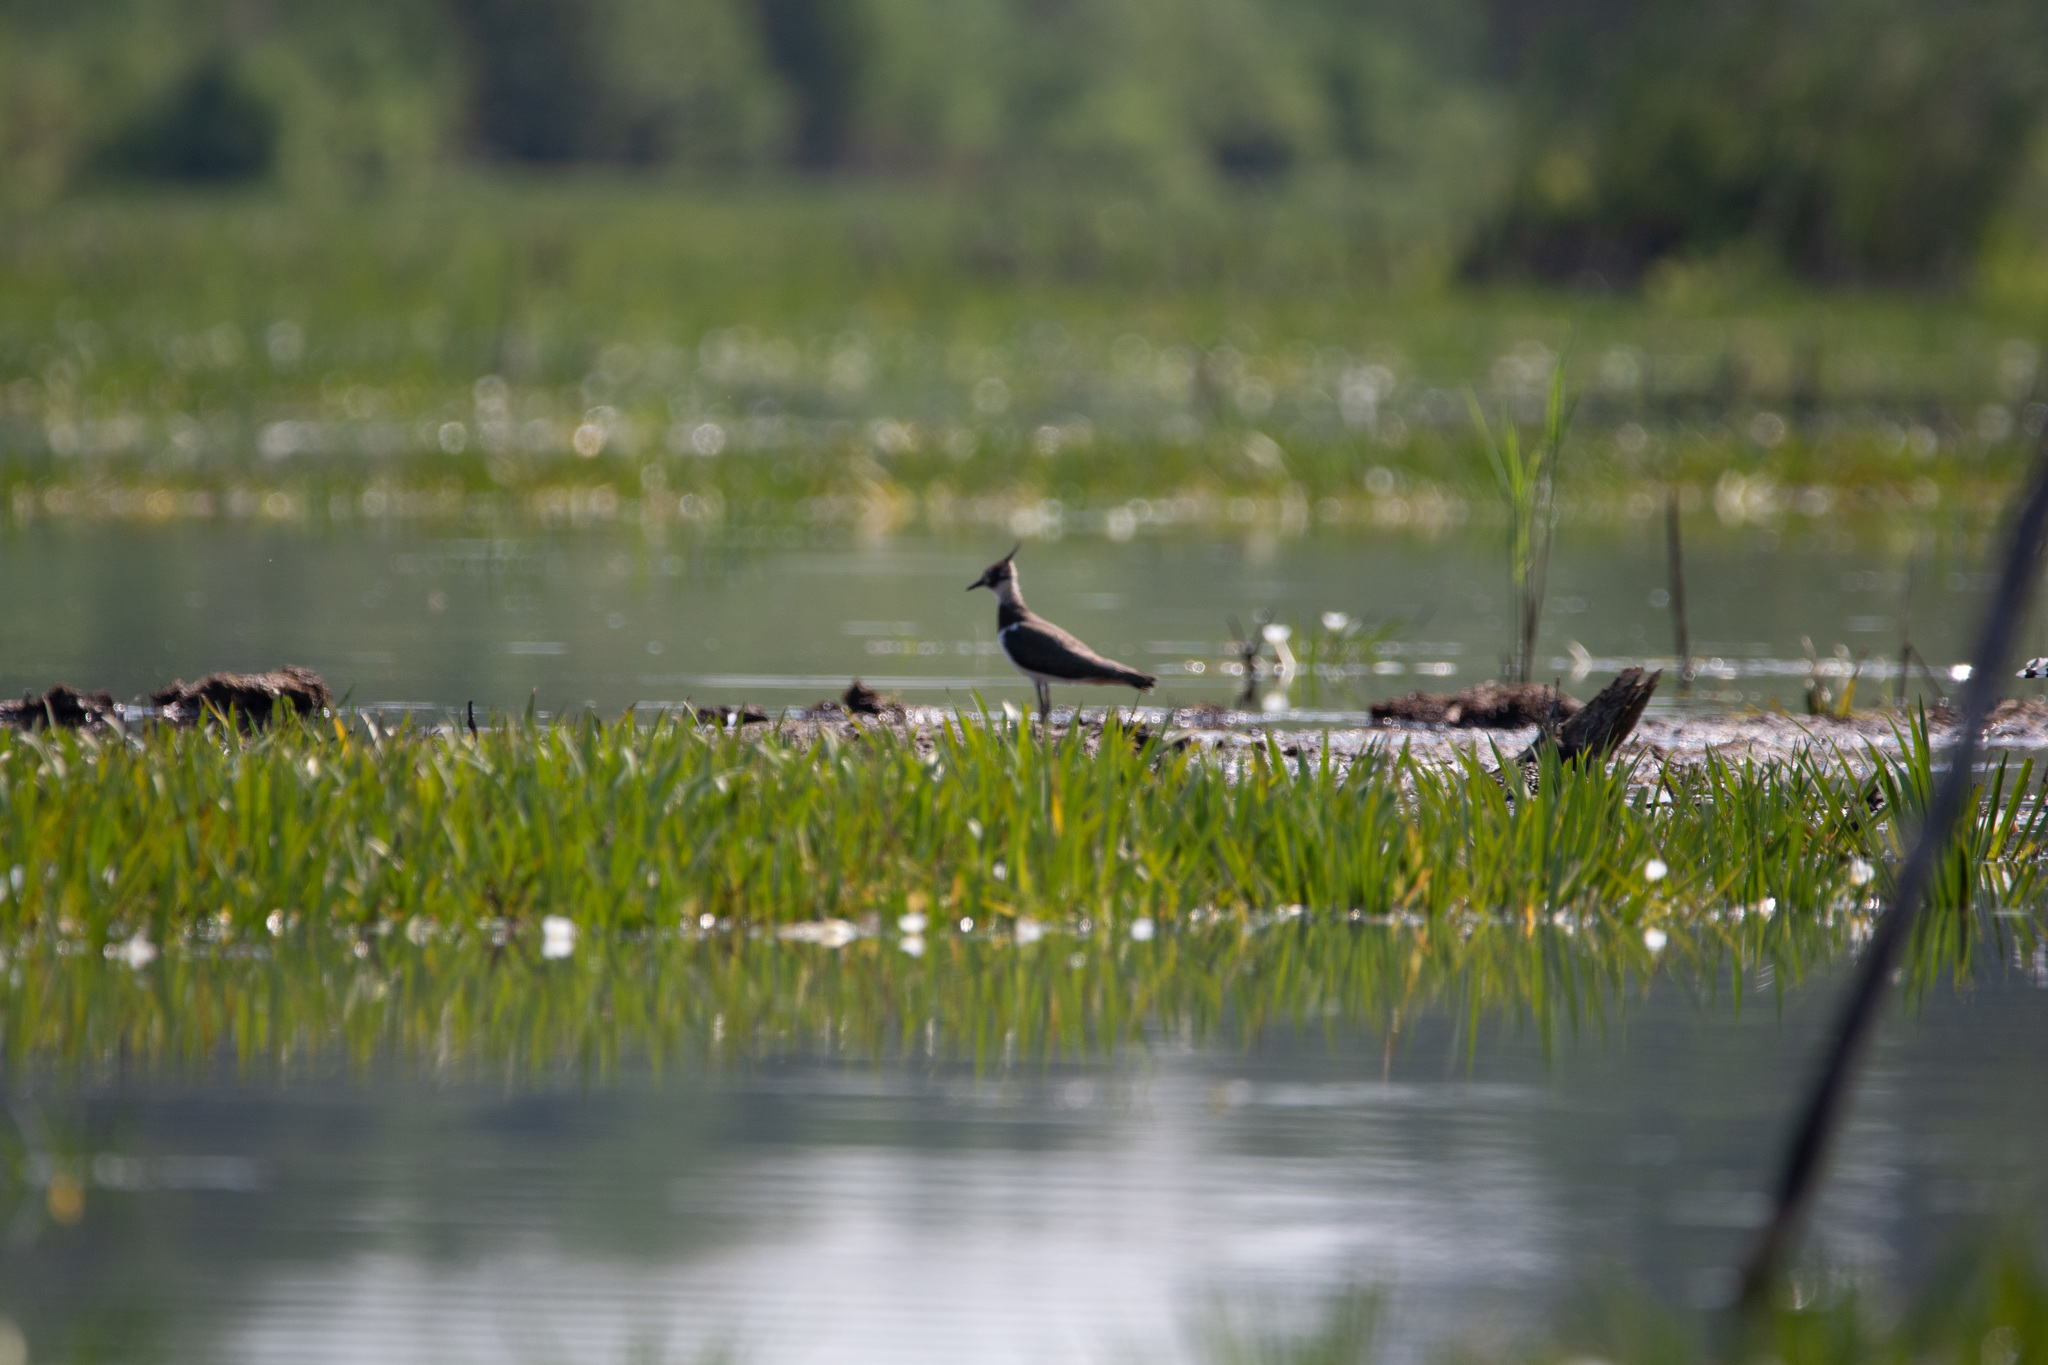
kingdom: Animalia
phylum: Chordata
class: Aves
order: Charadriiformes
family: Charadriidae
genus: Vanellus
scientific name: Vanellus vanellus
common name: Northern lapwing
